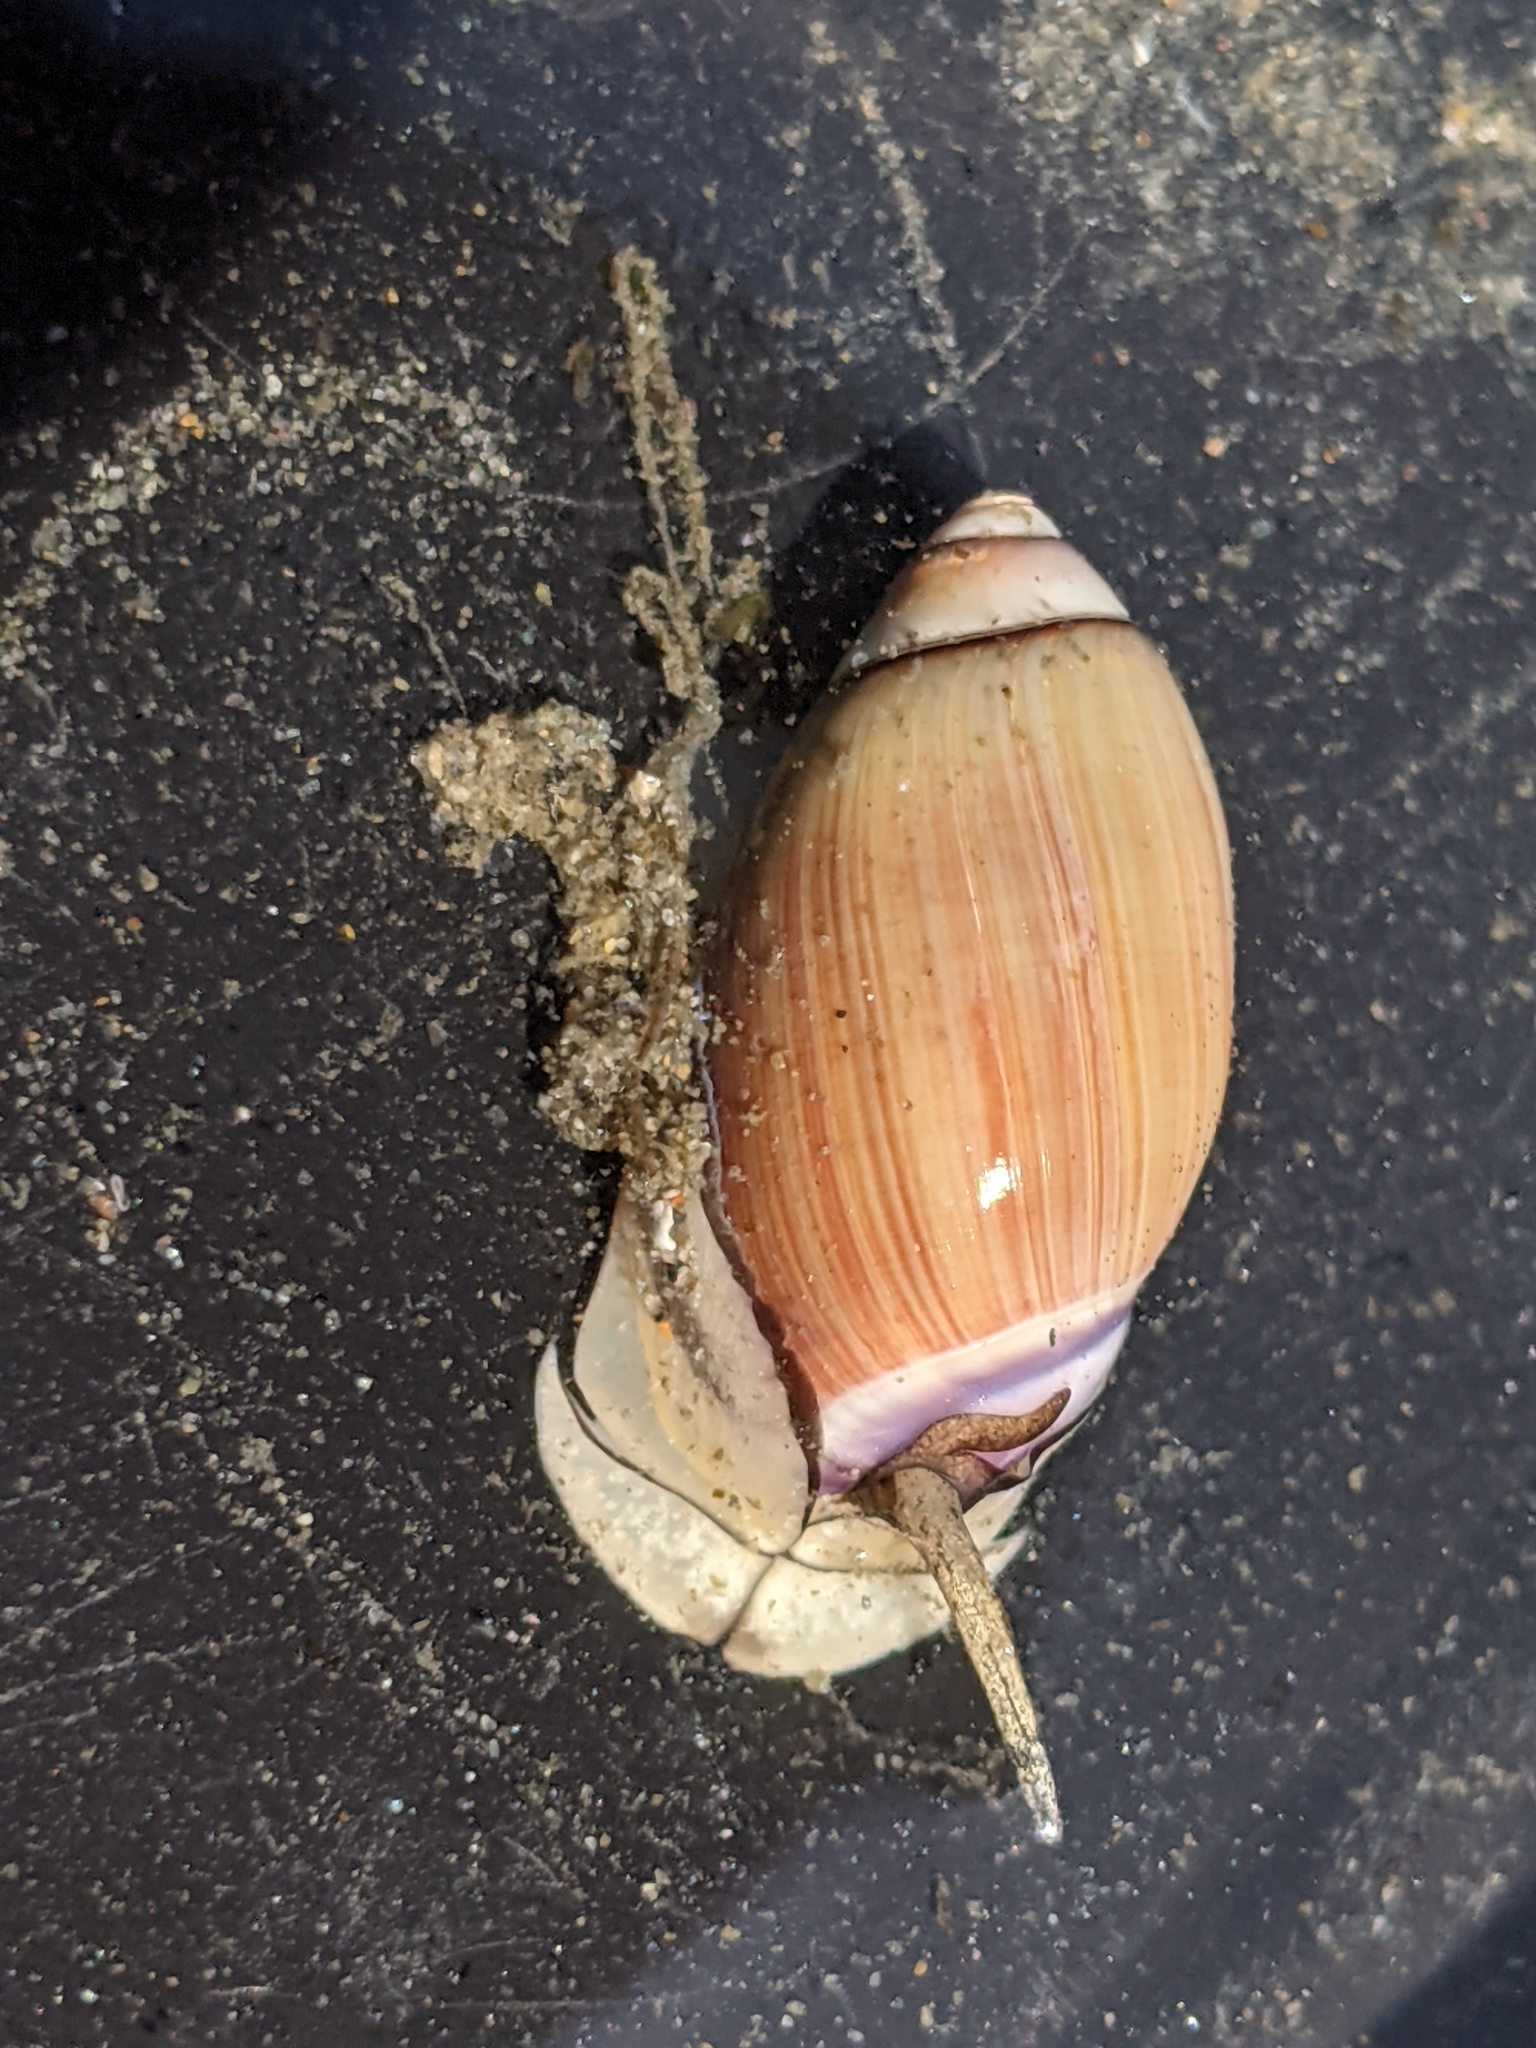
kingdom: Animalia
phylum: Mollusca
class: Gastropoda
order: Neogastropoda
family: Olividae
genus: Callianax
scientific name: Callianax biplicata
